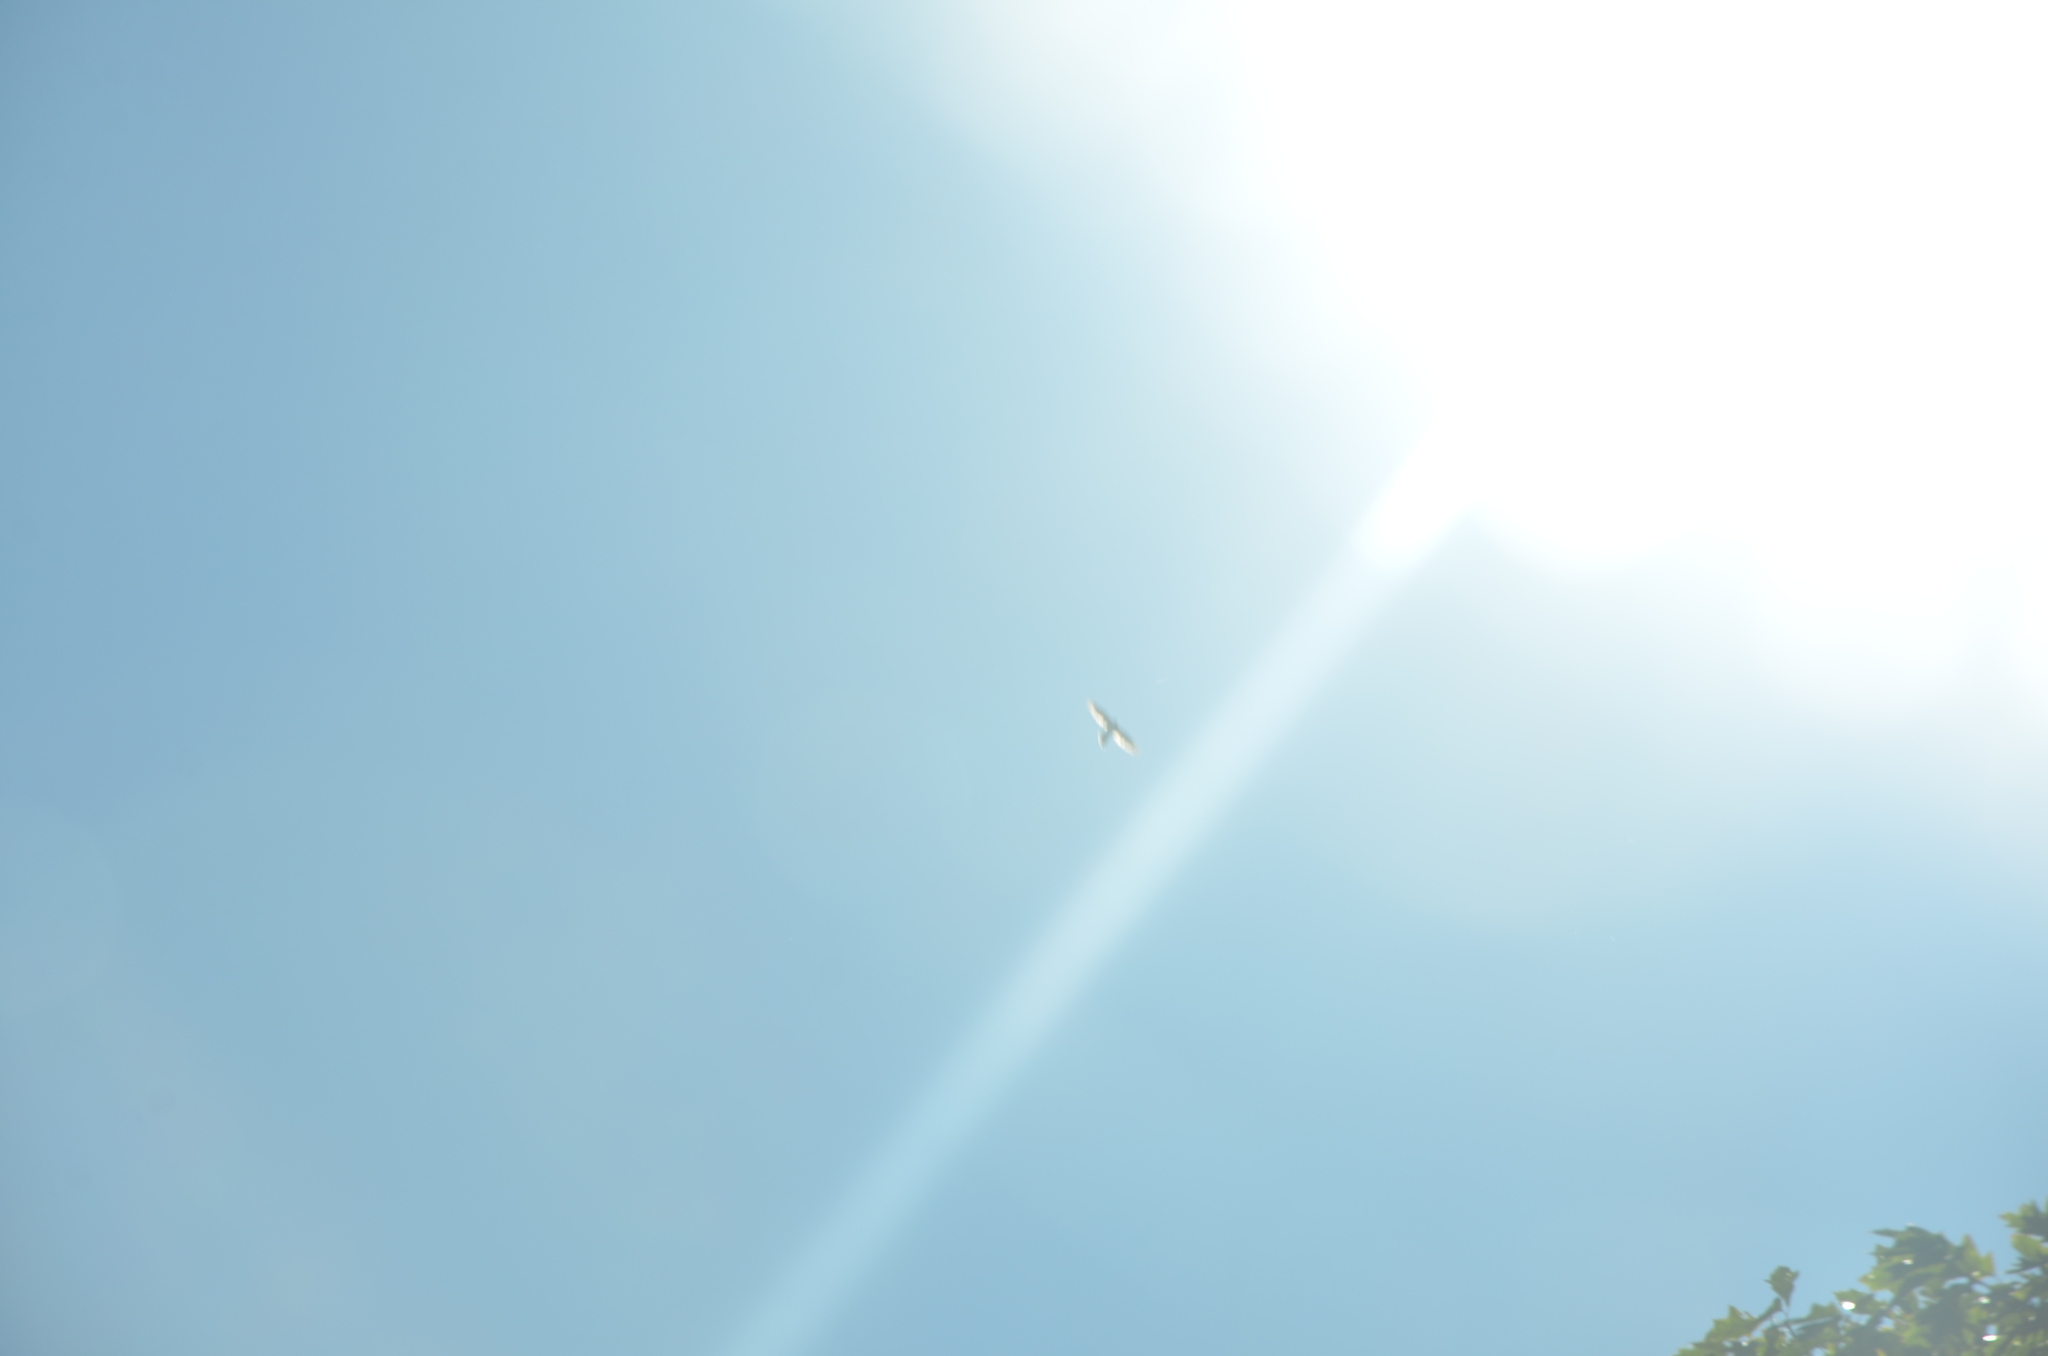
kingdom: Animalia
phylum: Chordata
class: Aves
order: Accipitriformes
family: Accipitridae
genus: Accipiter
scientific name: Accipiter cooperii
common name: Cooper's hawk
